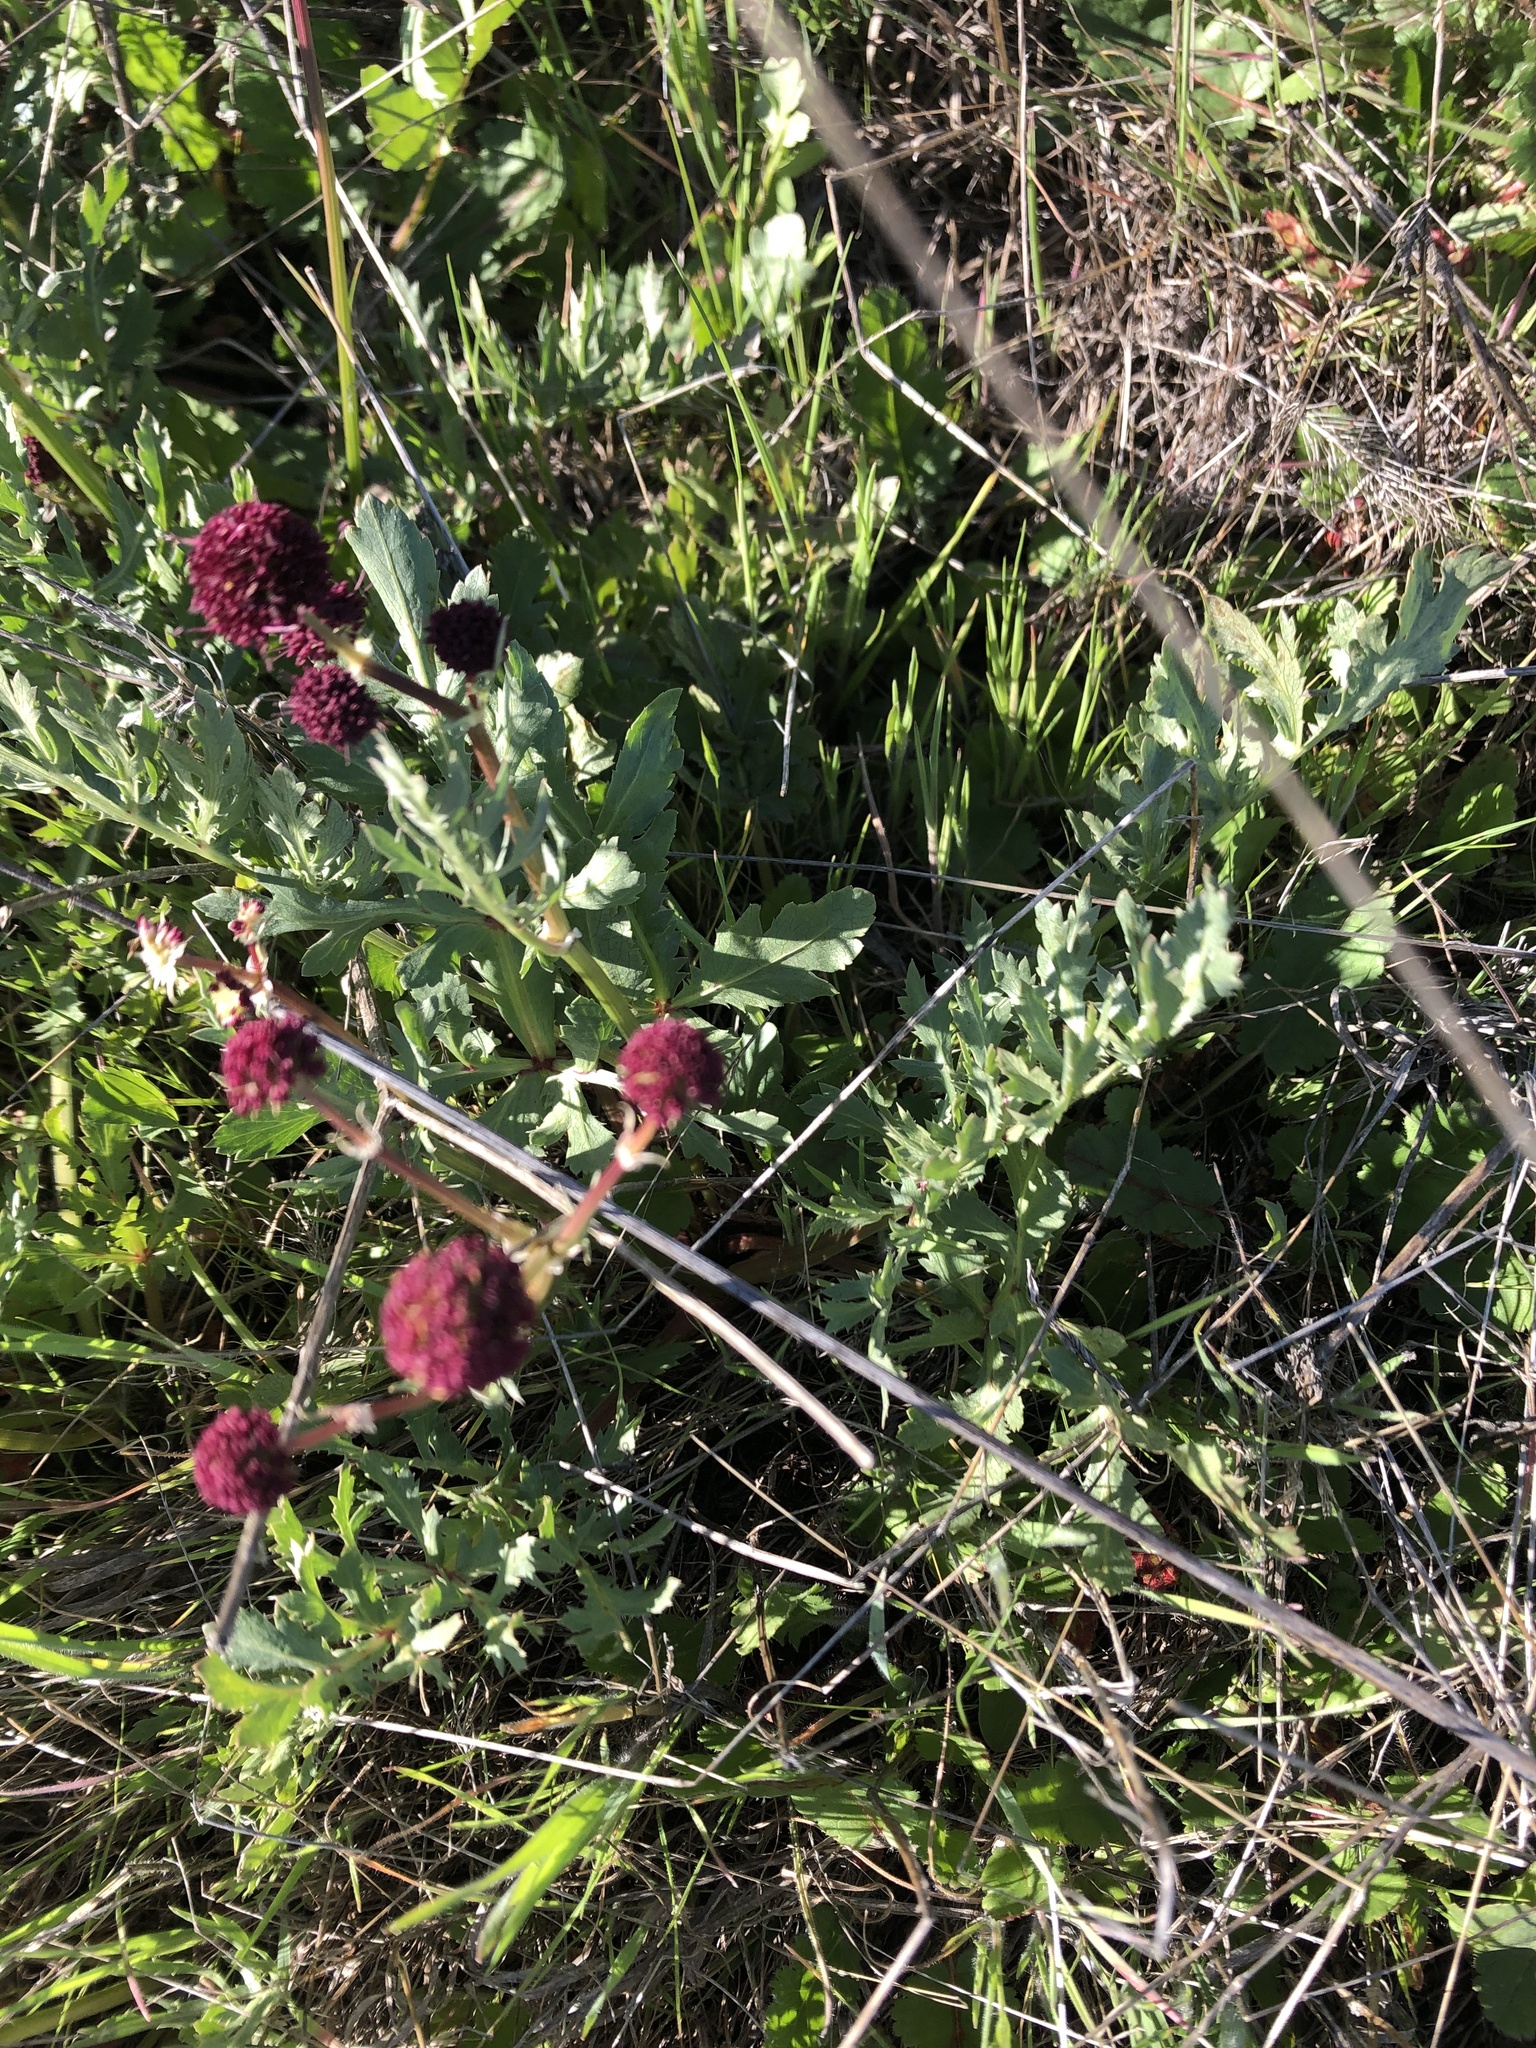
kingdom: Plantae
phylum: Tracheophyta
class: Magnoliopsida
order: Apiales
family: Apiaceae
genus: Sanicula
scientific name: Sanicula bipinnatifida
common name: Shoe-buttons
